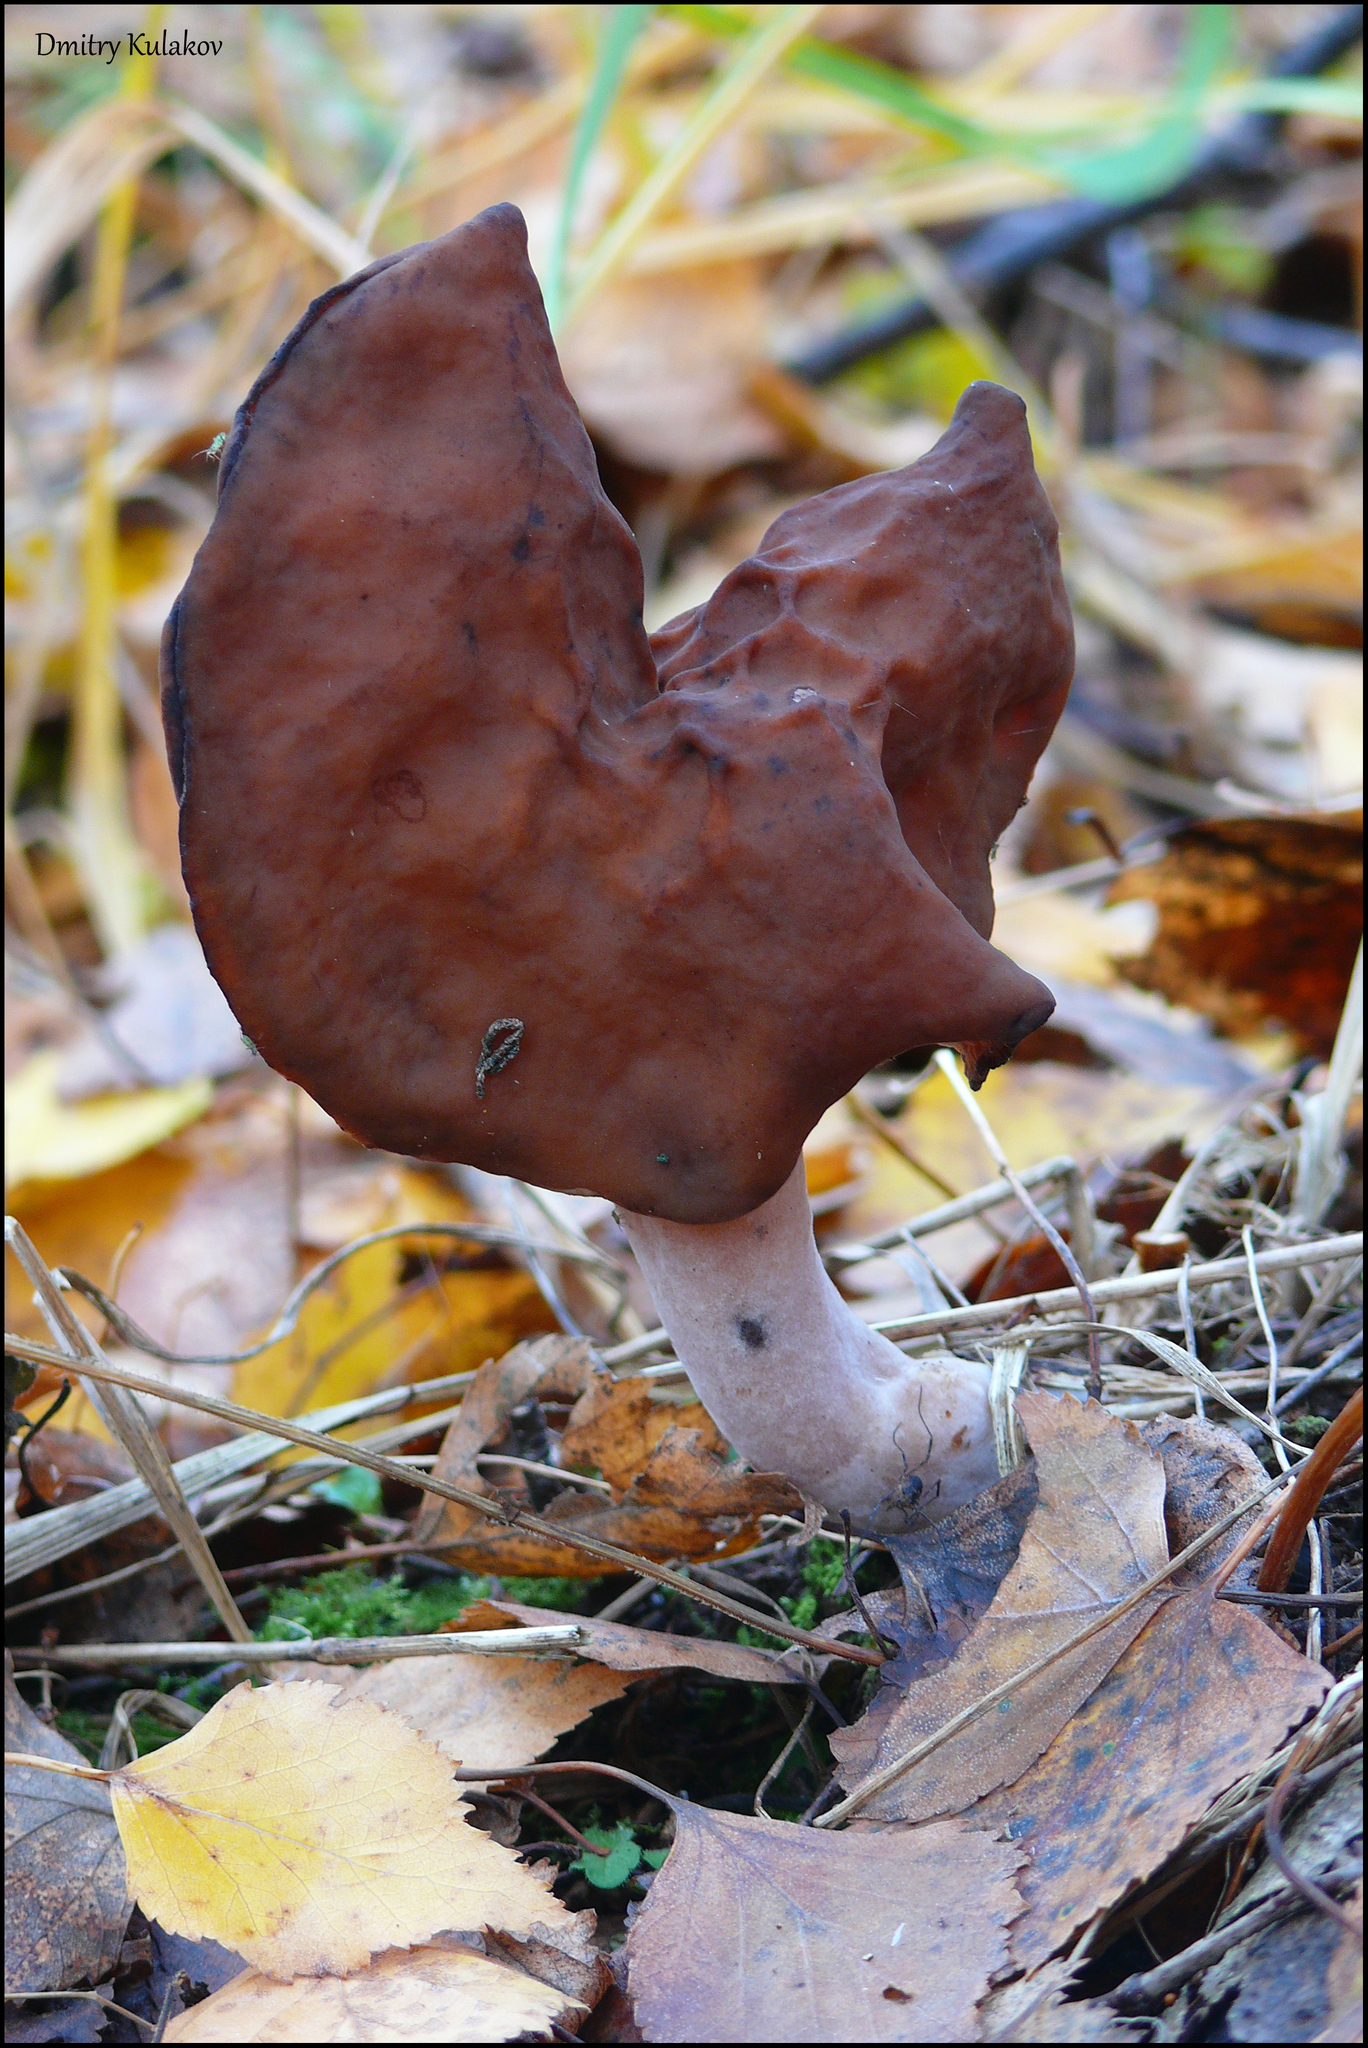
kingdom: Fungi
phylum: Ascomycota
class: Pezizomycetes
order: Pezizales
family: Discinaceae
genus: Gyromitra
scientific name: Gyromitra infula
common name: Pouched false morel
